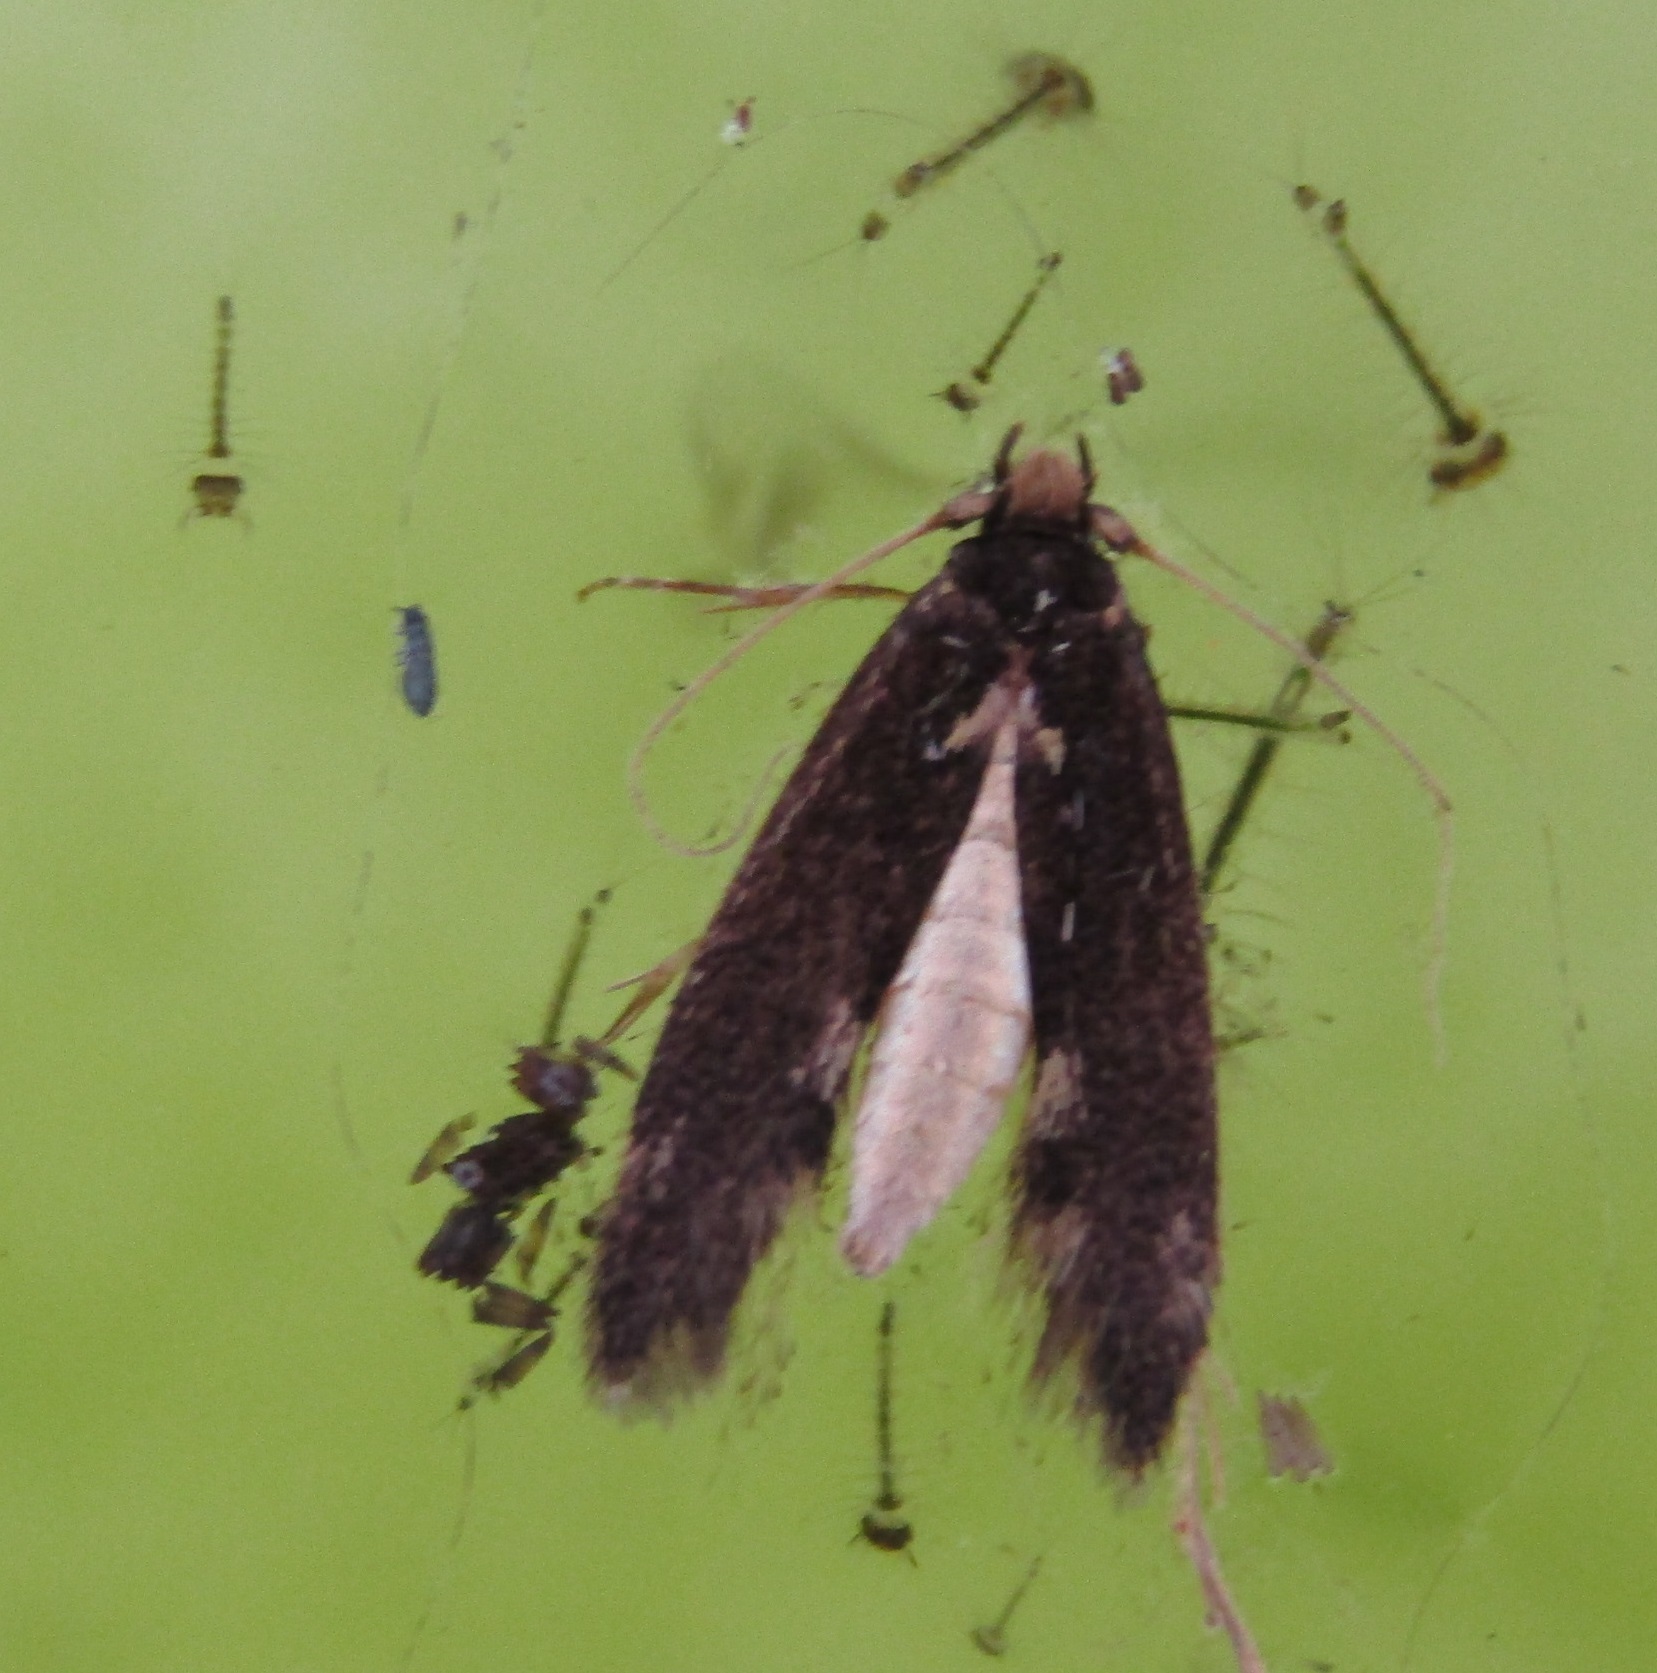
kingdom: Animalia
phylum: Arthropoda
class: Insecta
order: Lepidoptera
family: Tineidae
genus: Opogona
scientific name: Opogona omoscopa
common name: Moth
